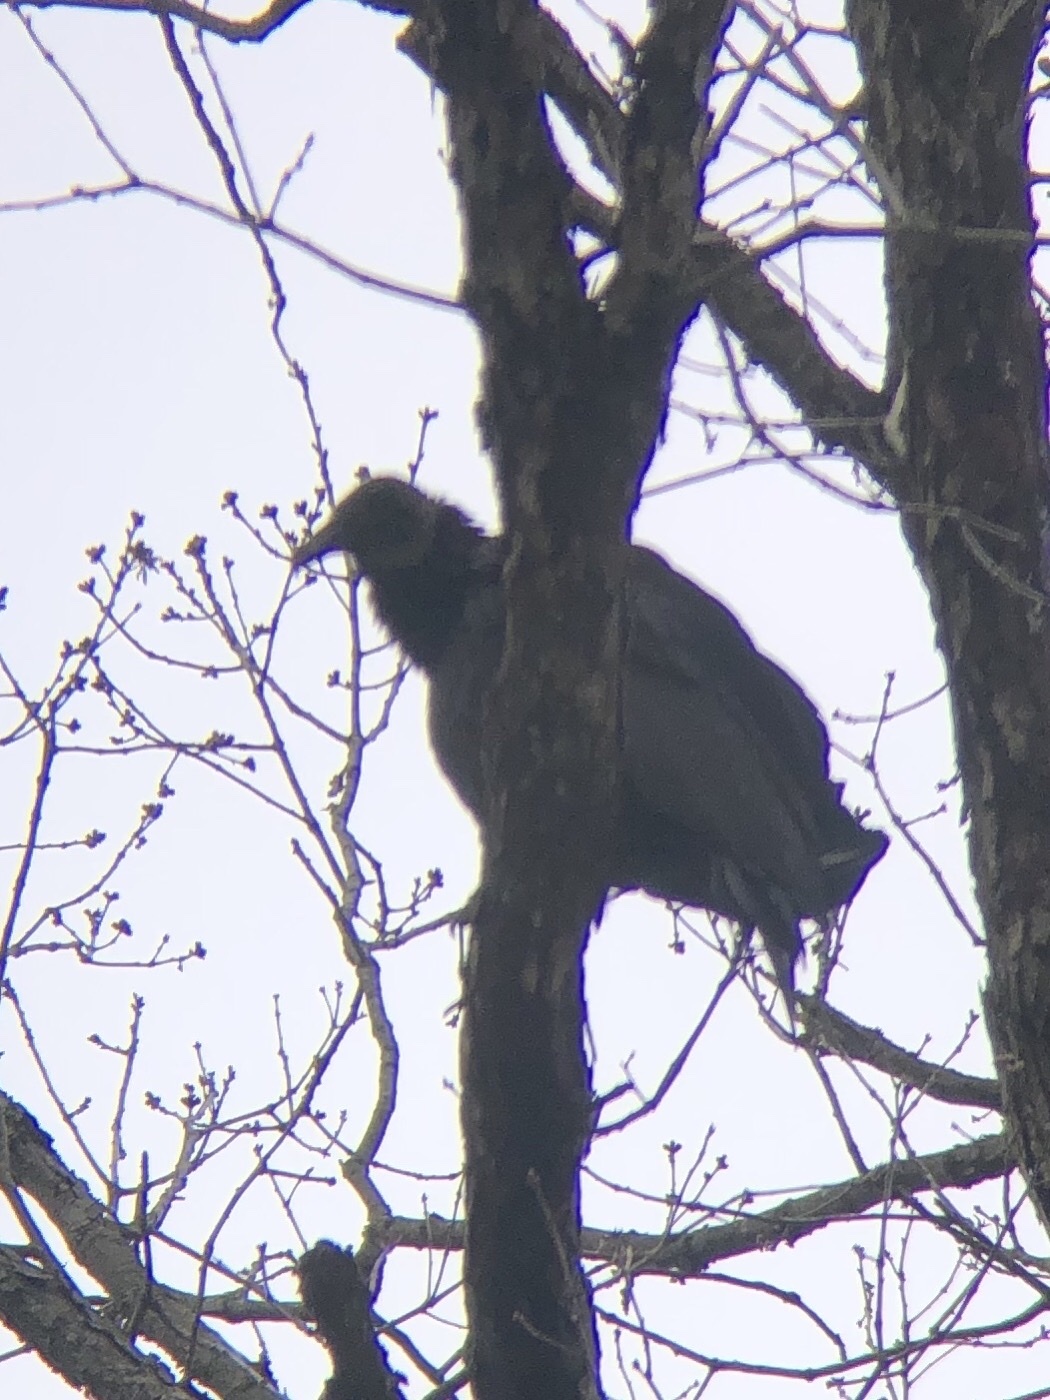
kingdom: Animalia
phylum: Chordata
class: Aves
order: Accipitriformes
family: Cathartidae
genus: Coragyps
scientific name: Coragyps atratus
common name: Black vulture
